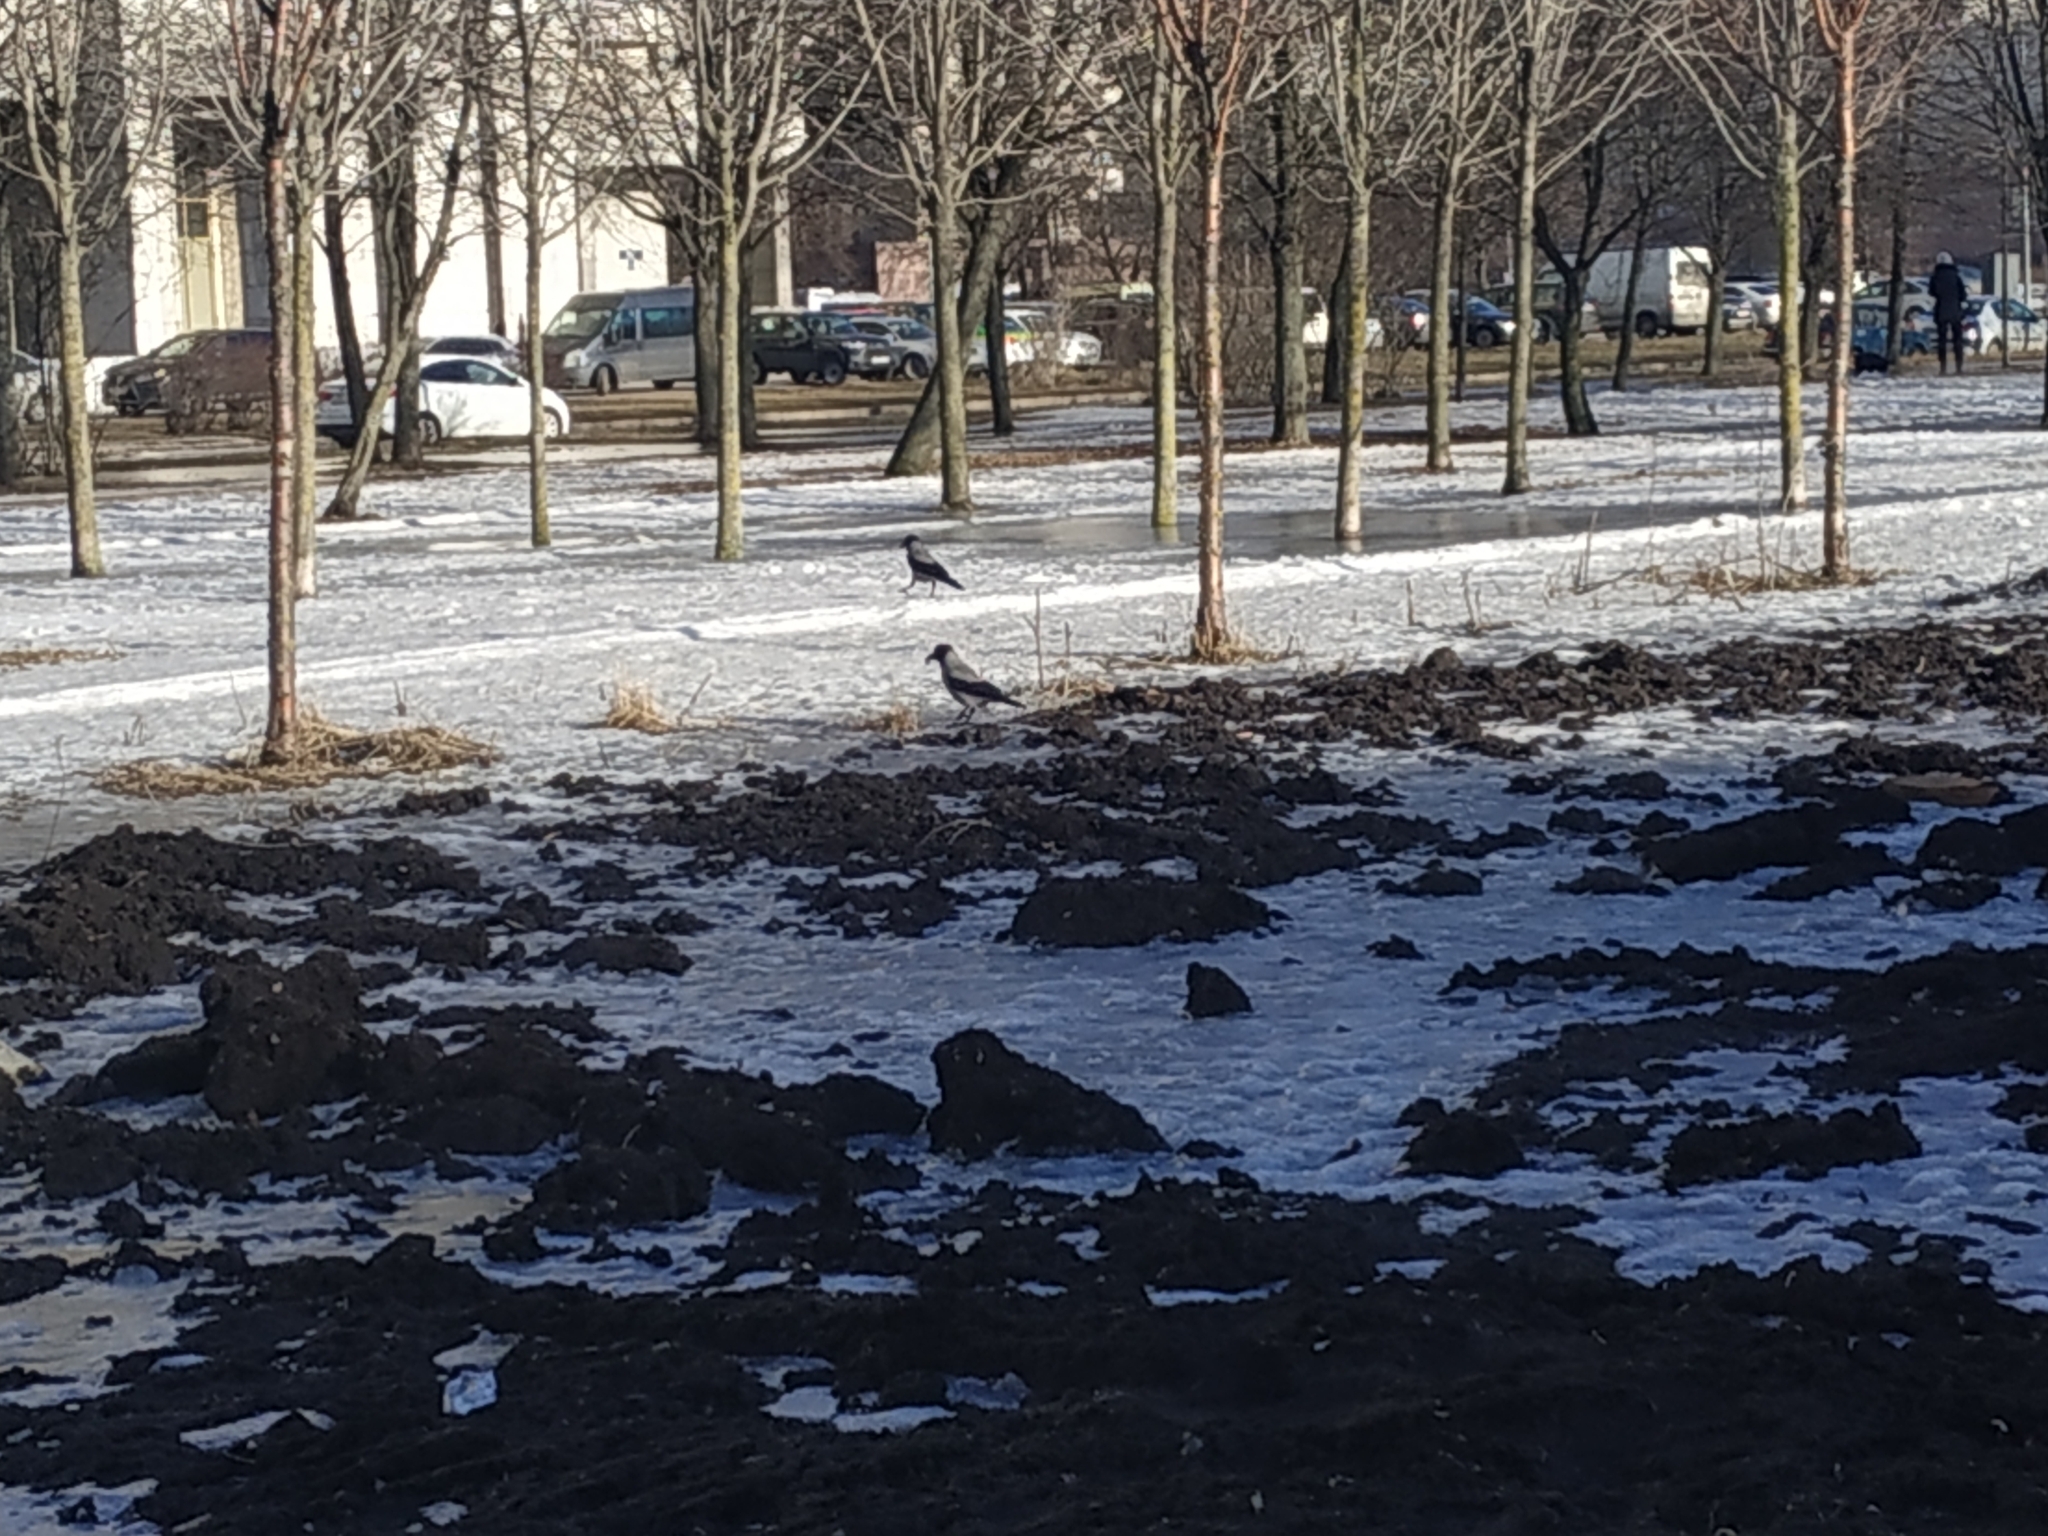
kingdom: Animalia
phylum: Chordata
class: Aves
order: Passeriformes
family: Corvidae
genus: Corvus
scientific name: Corvus cornix
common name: Hooded crow
